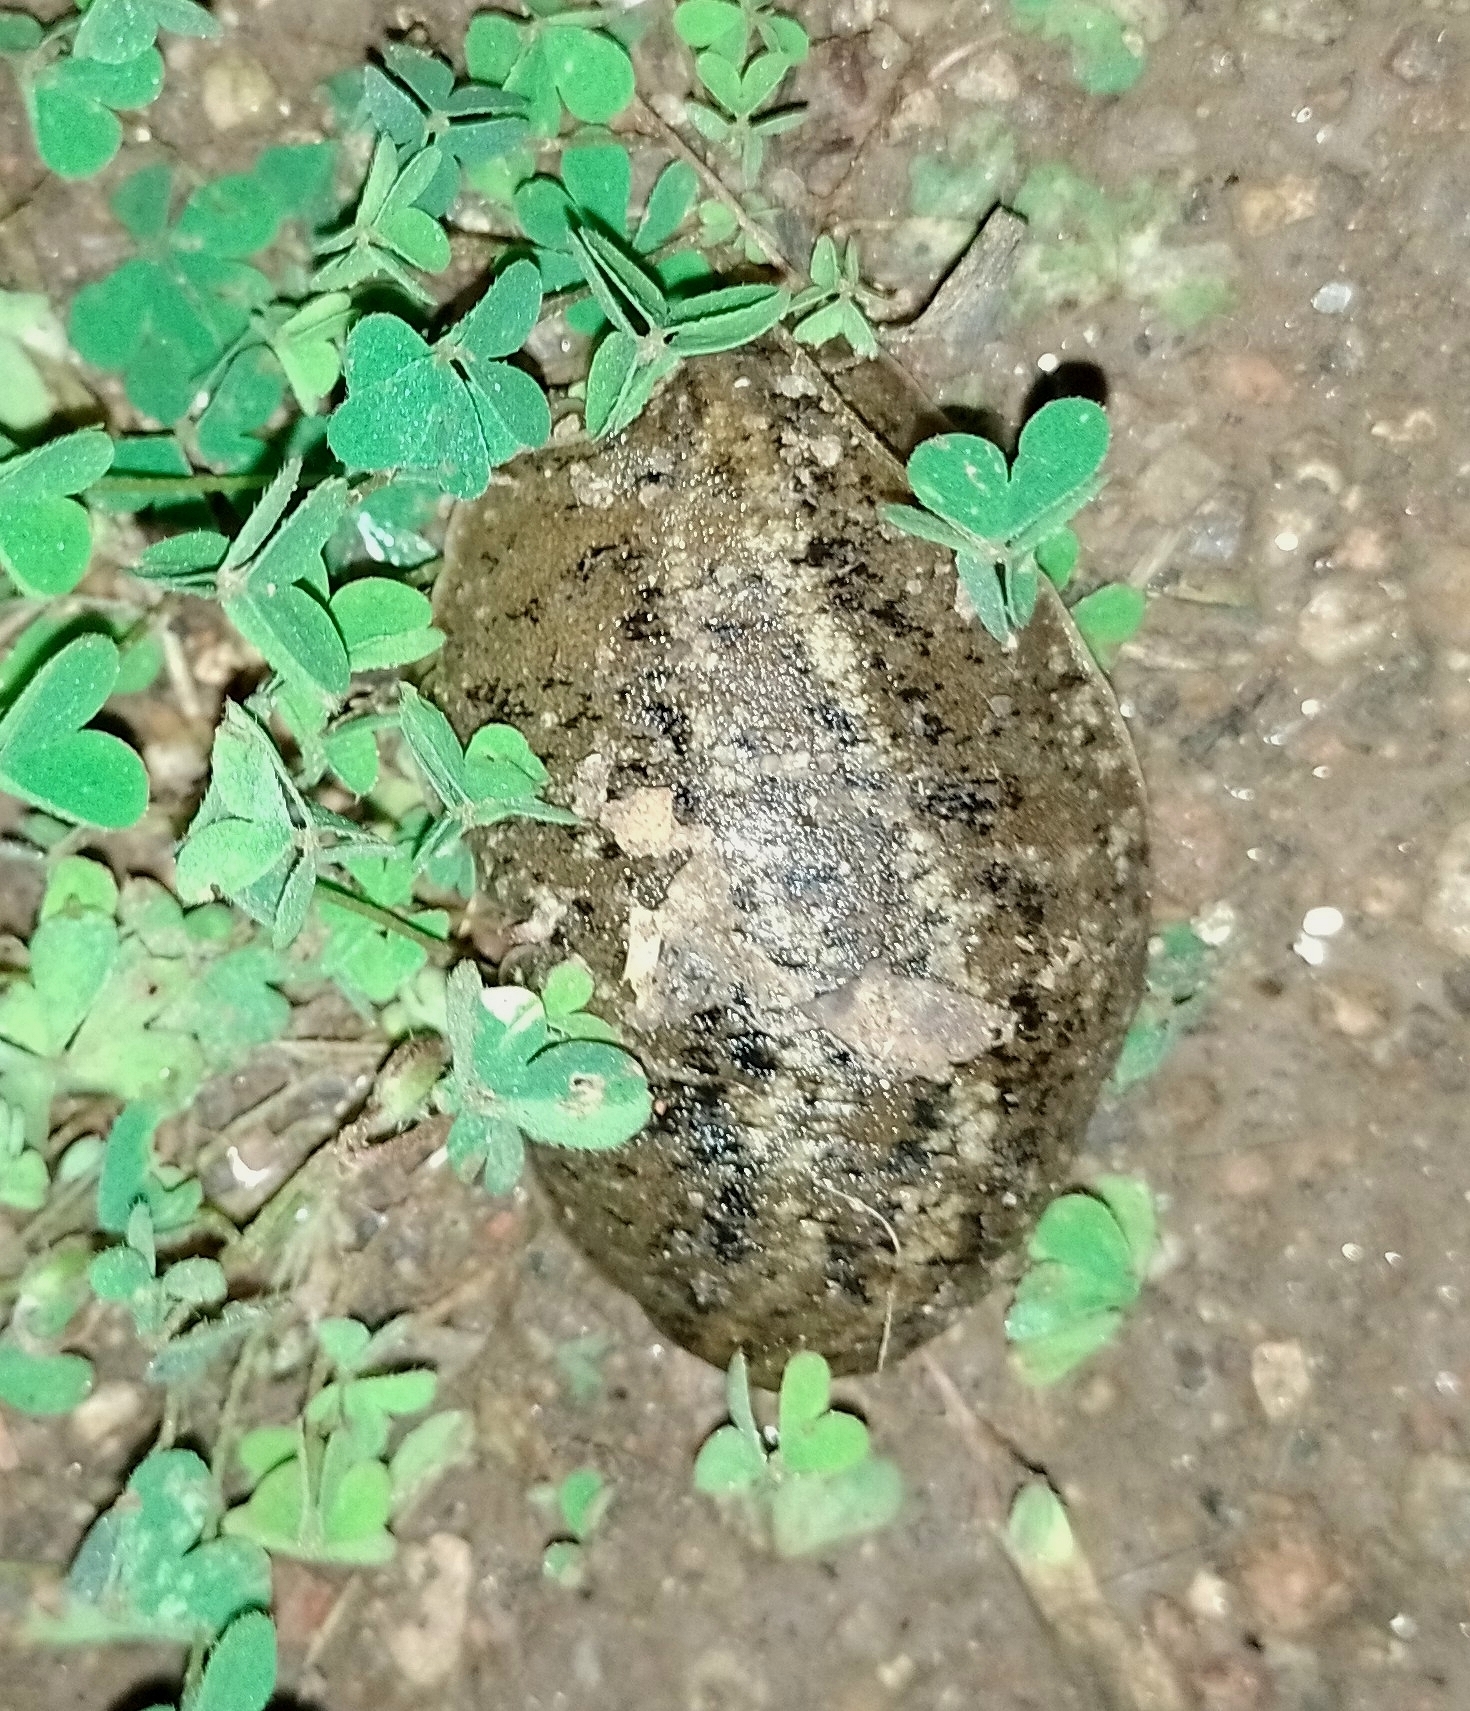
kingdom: Animalia
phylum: Mollusca
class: Gastropoda
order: Systellommatophora
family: Veronicellidae
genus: Phyllocaulis
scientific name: Phyllocaulis soleiformis
